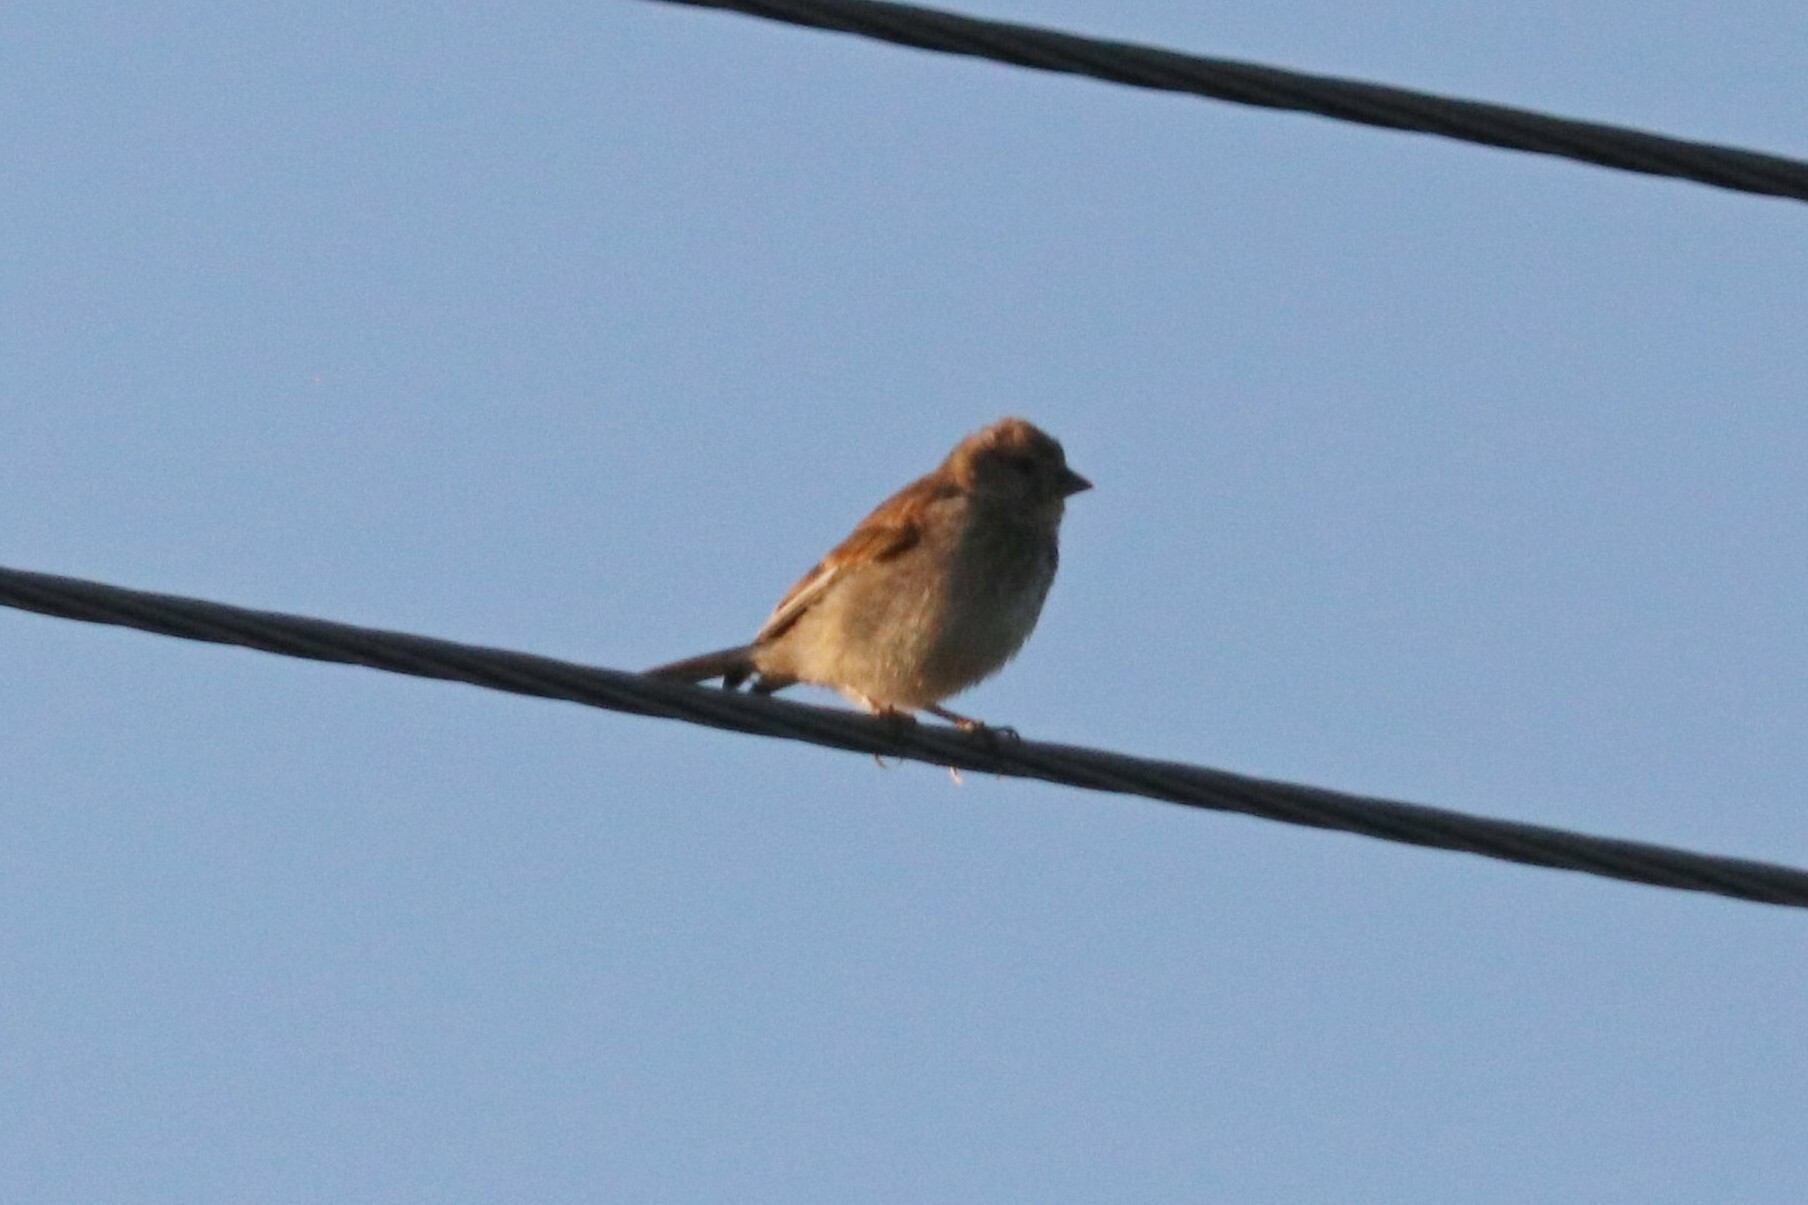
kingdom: Animalia
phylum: Chordata
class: Aves
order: Passeriformes
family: Fringillidae
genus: Linaria
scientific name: Linaria cannabina
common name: Common linnet
